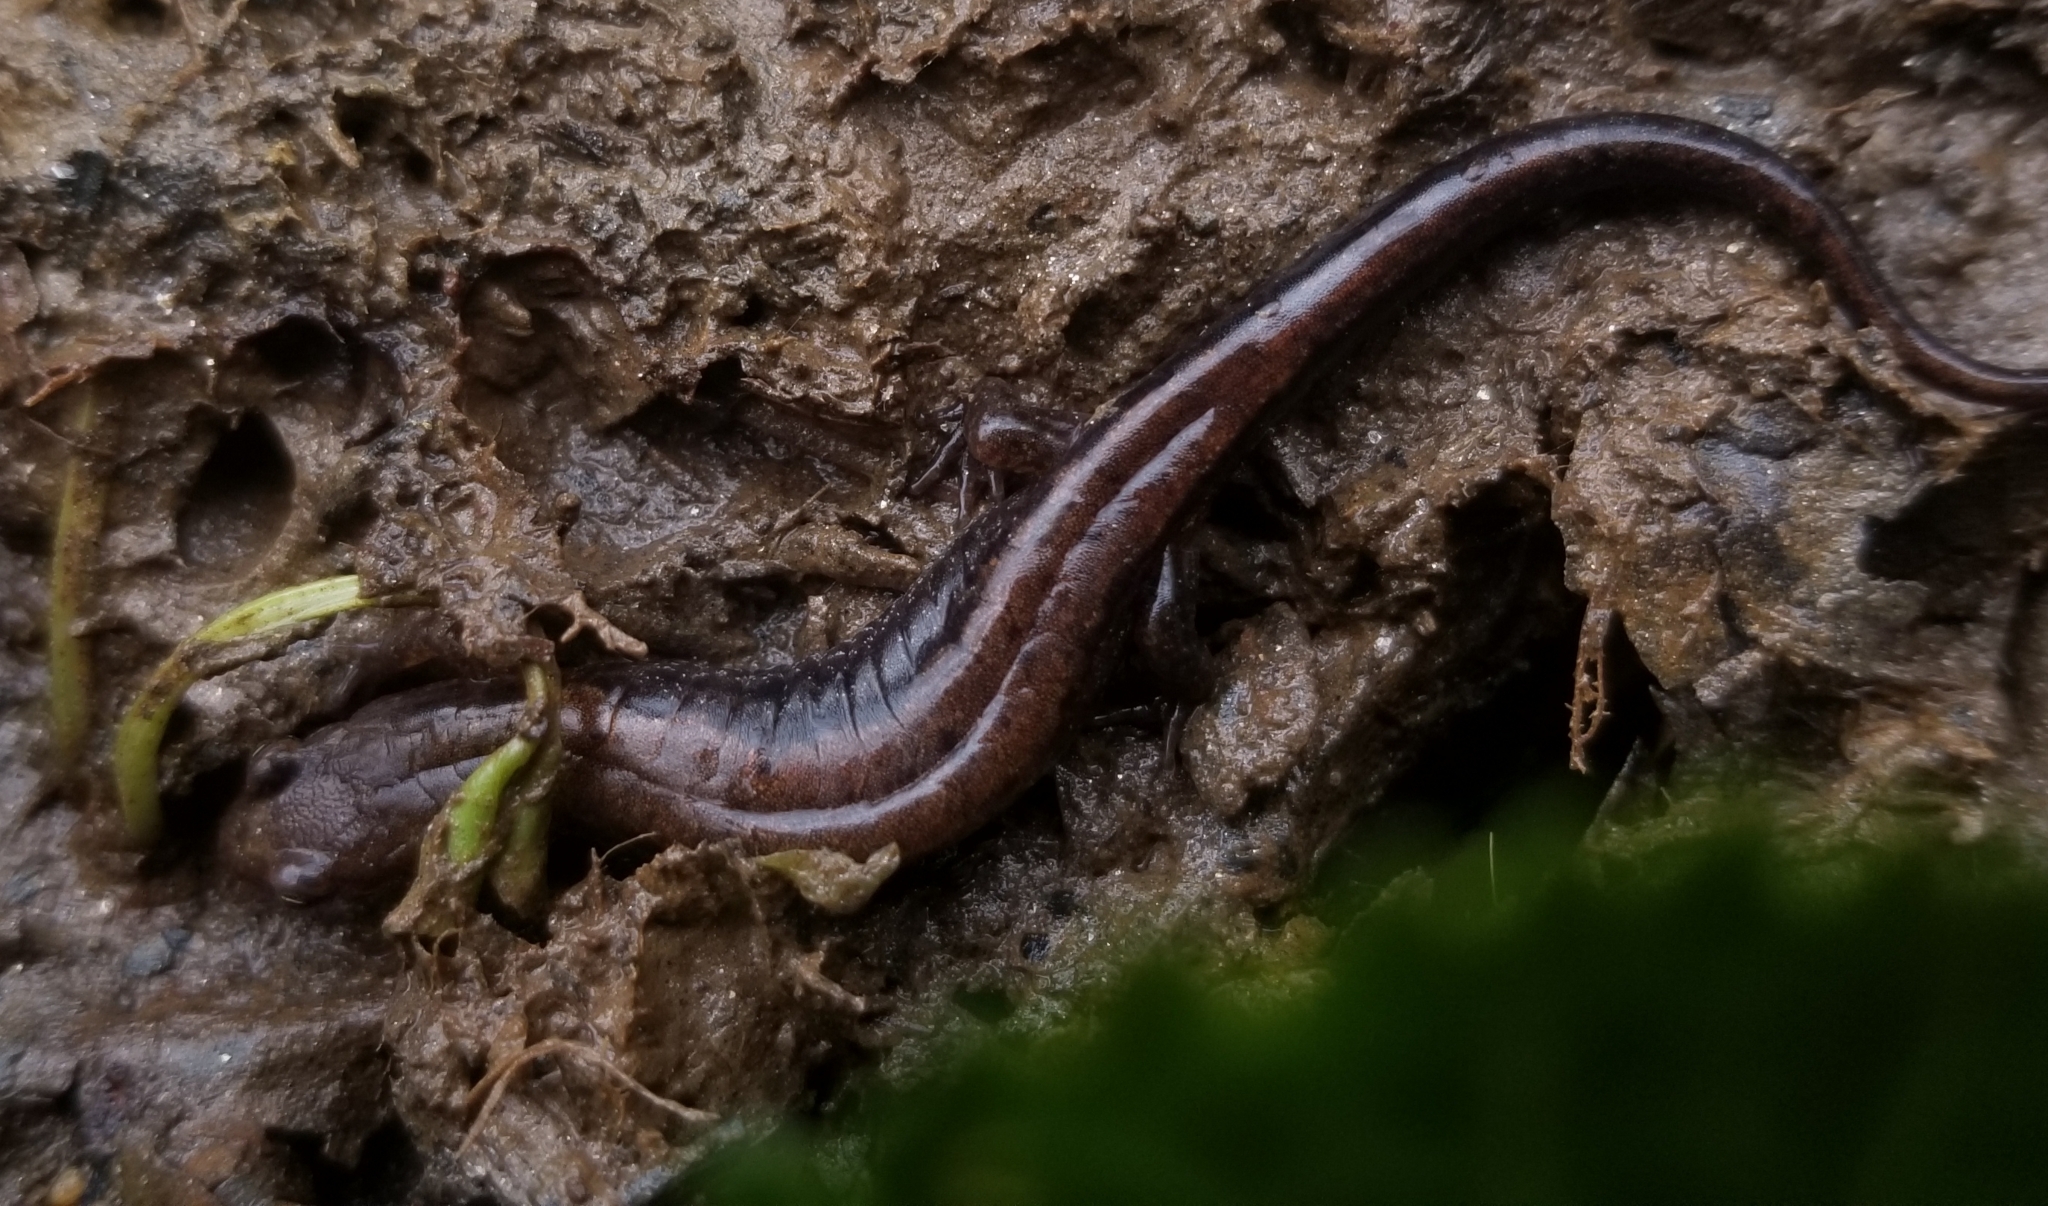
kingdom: Animalia
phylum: Chordata
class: Amphibia
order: Caudata
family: Plethodontidae
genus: Desmognathus
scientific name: Desmognathus carolinensis
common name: Carolina mountain dusky salamander
